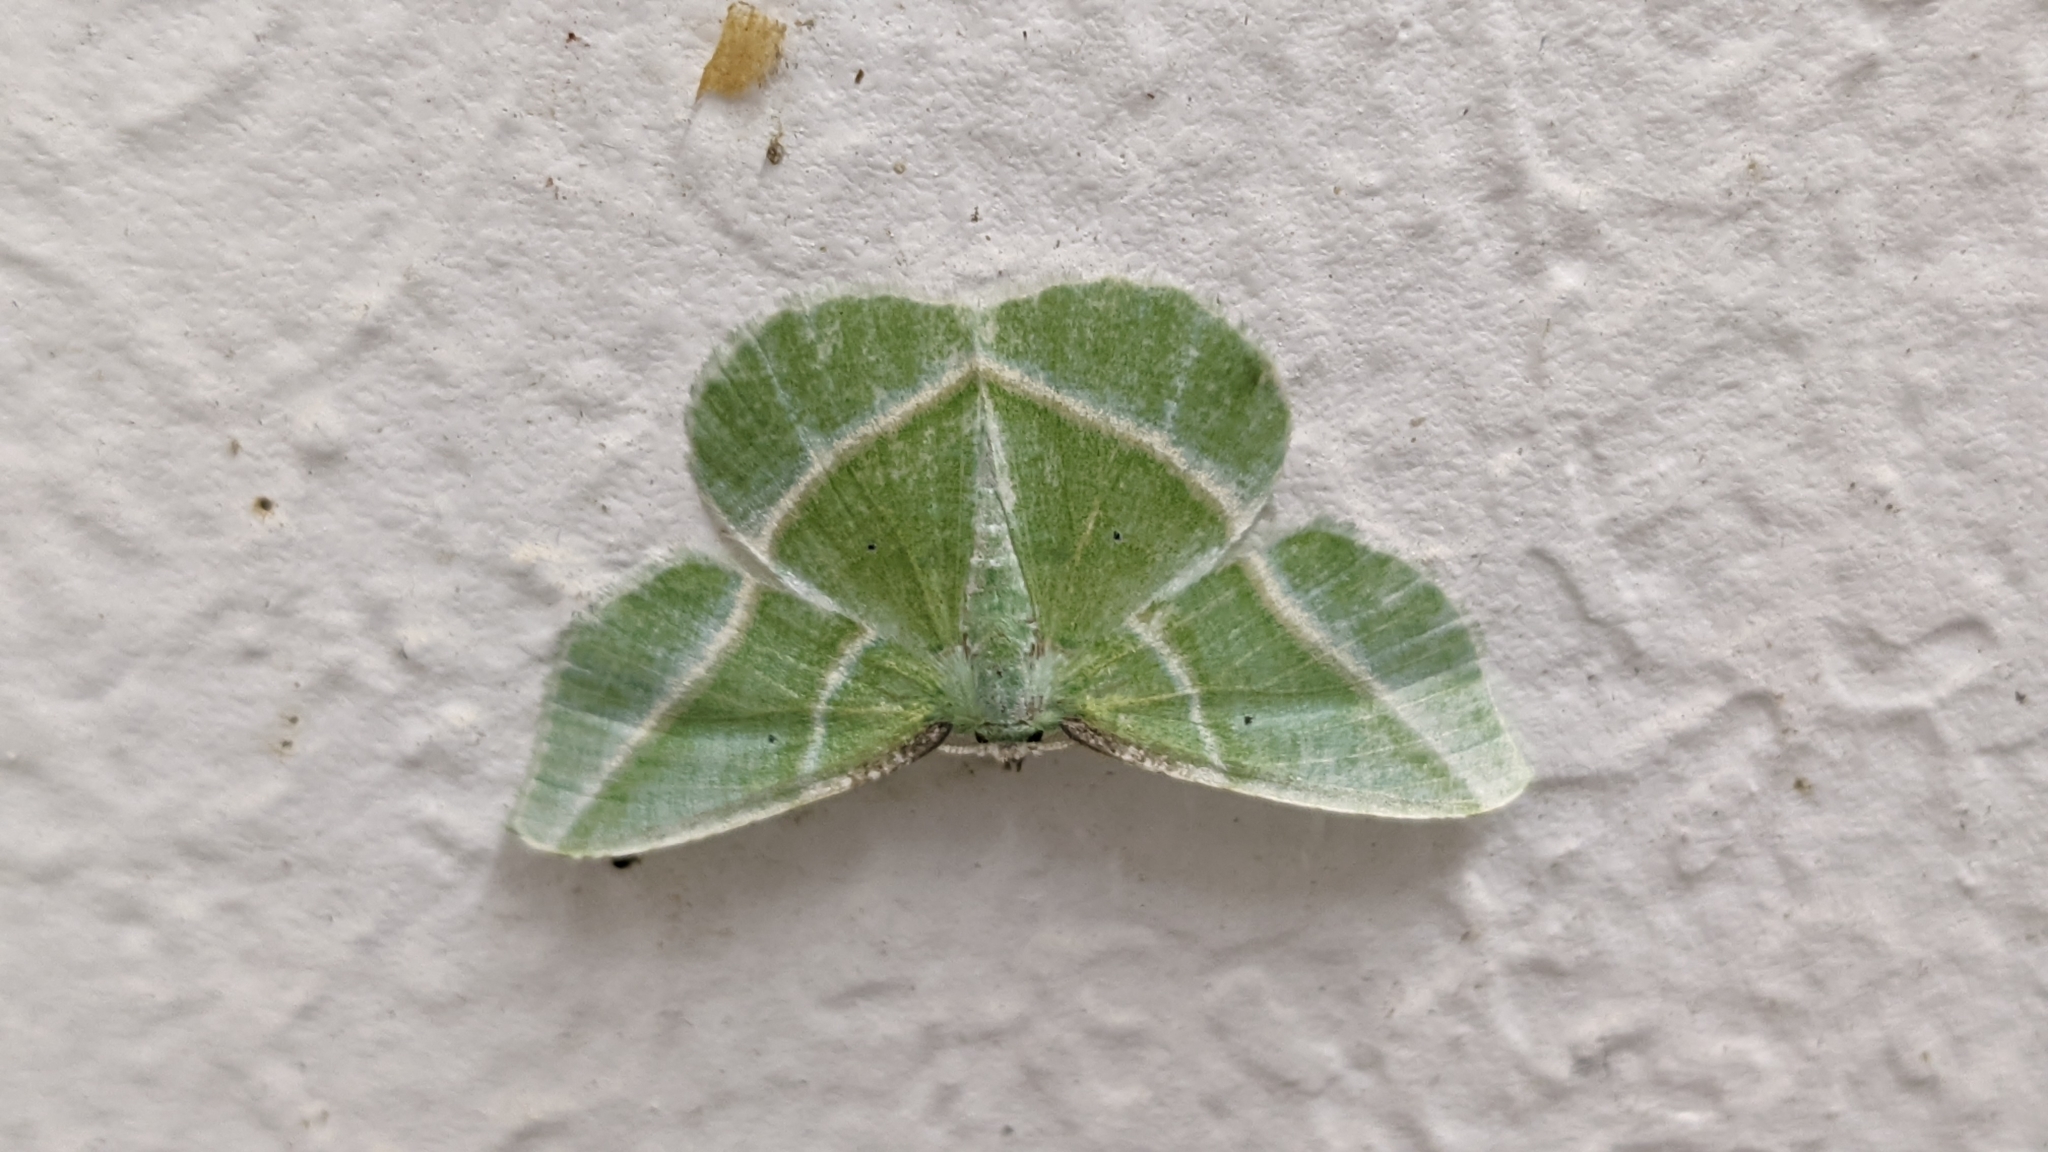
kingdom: Animalia
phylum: Arthropoda
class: Insecta
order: Lepidoptera
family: Geometridae
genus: Dichorda
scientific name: Dichorda iridaria
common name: Showy emerald
